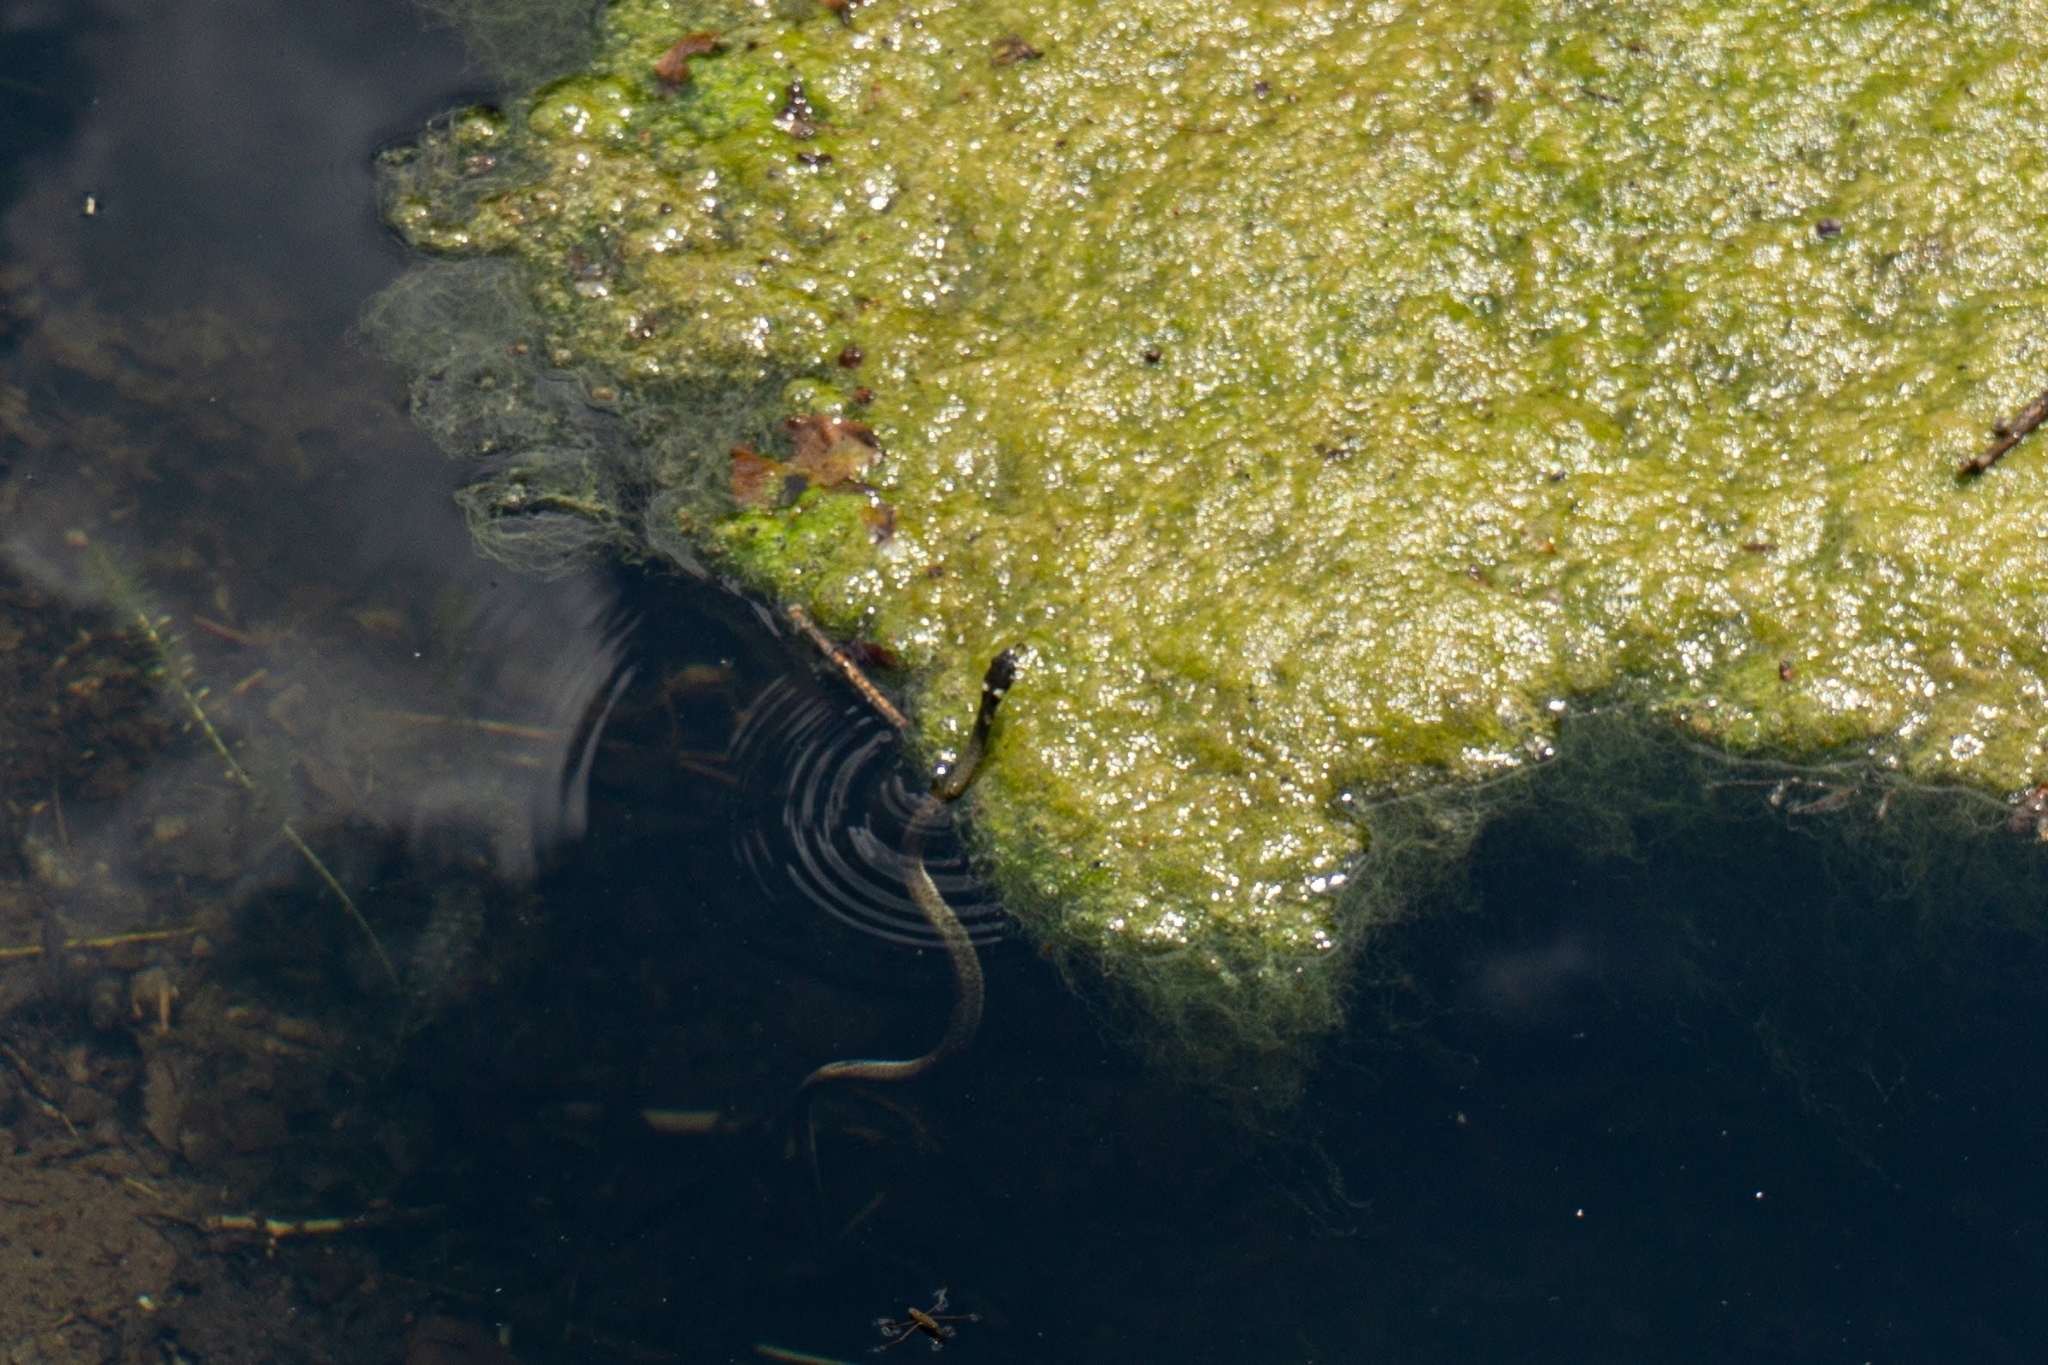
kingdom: Animalia
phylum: Chordata
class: Squamata
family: Colubridae
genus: Natrix
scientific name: Natrix natrix
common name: Grass snake
